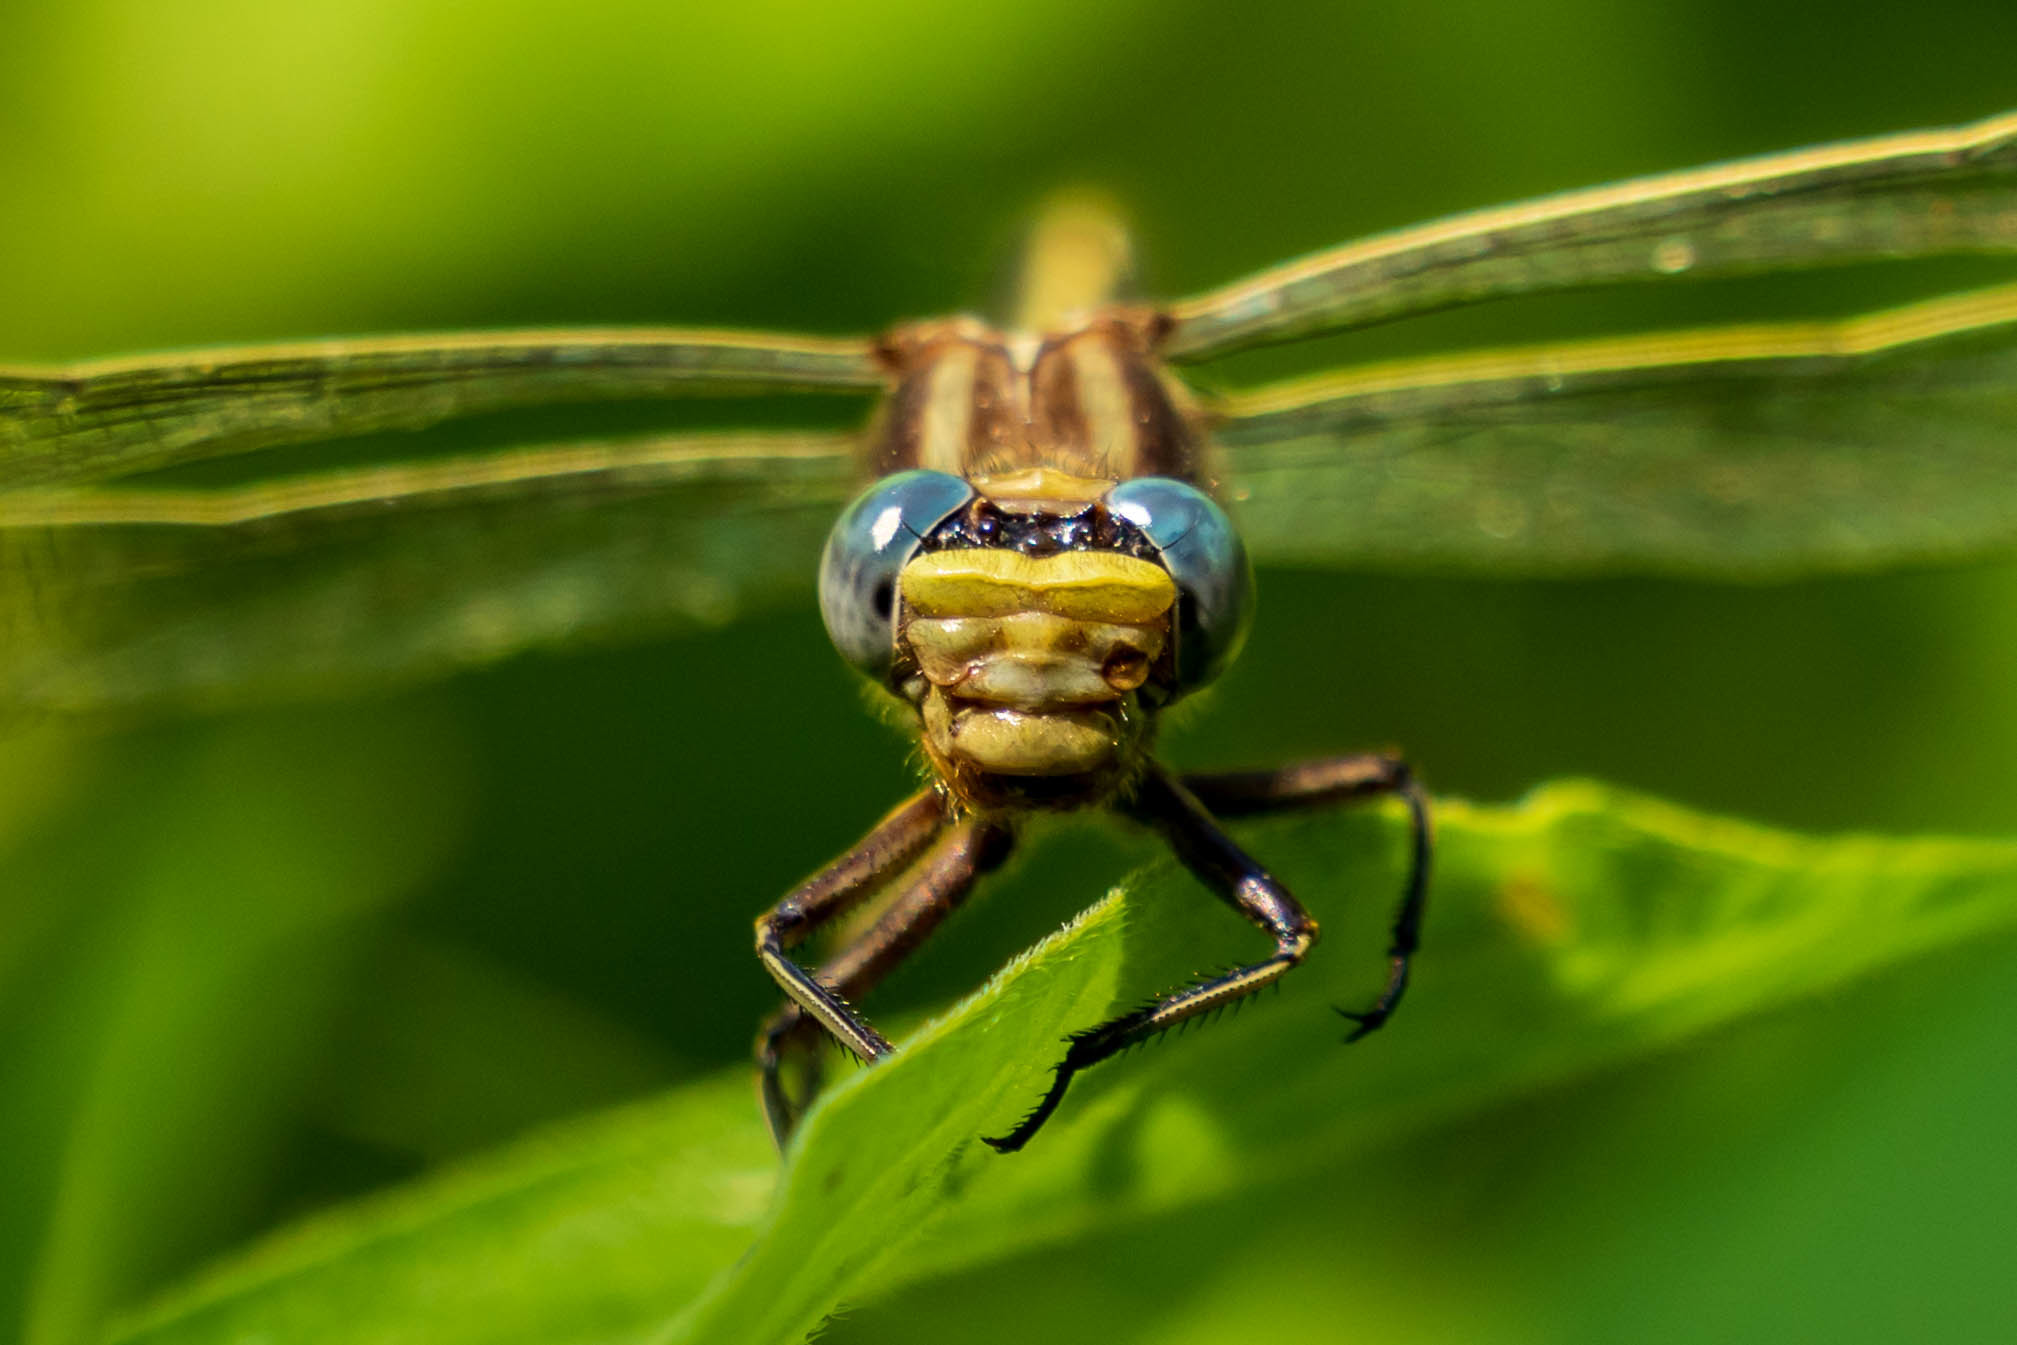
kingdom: Animalia
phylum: Arthropoda
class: Insecta
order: Odonata
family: Gomphidae
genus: Phanogomphus
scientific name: Phanogomphus spicatus
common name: Dusky clubtail
